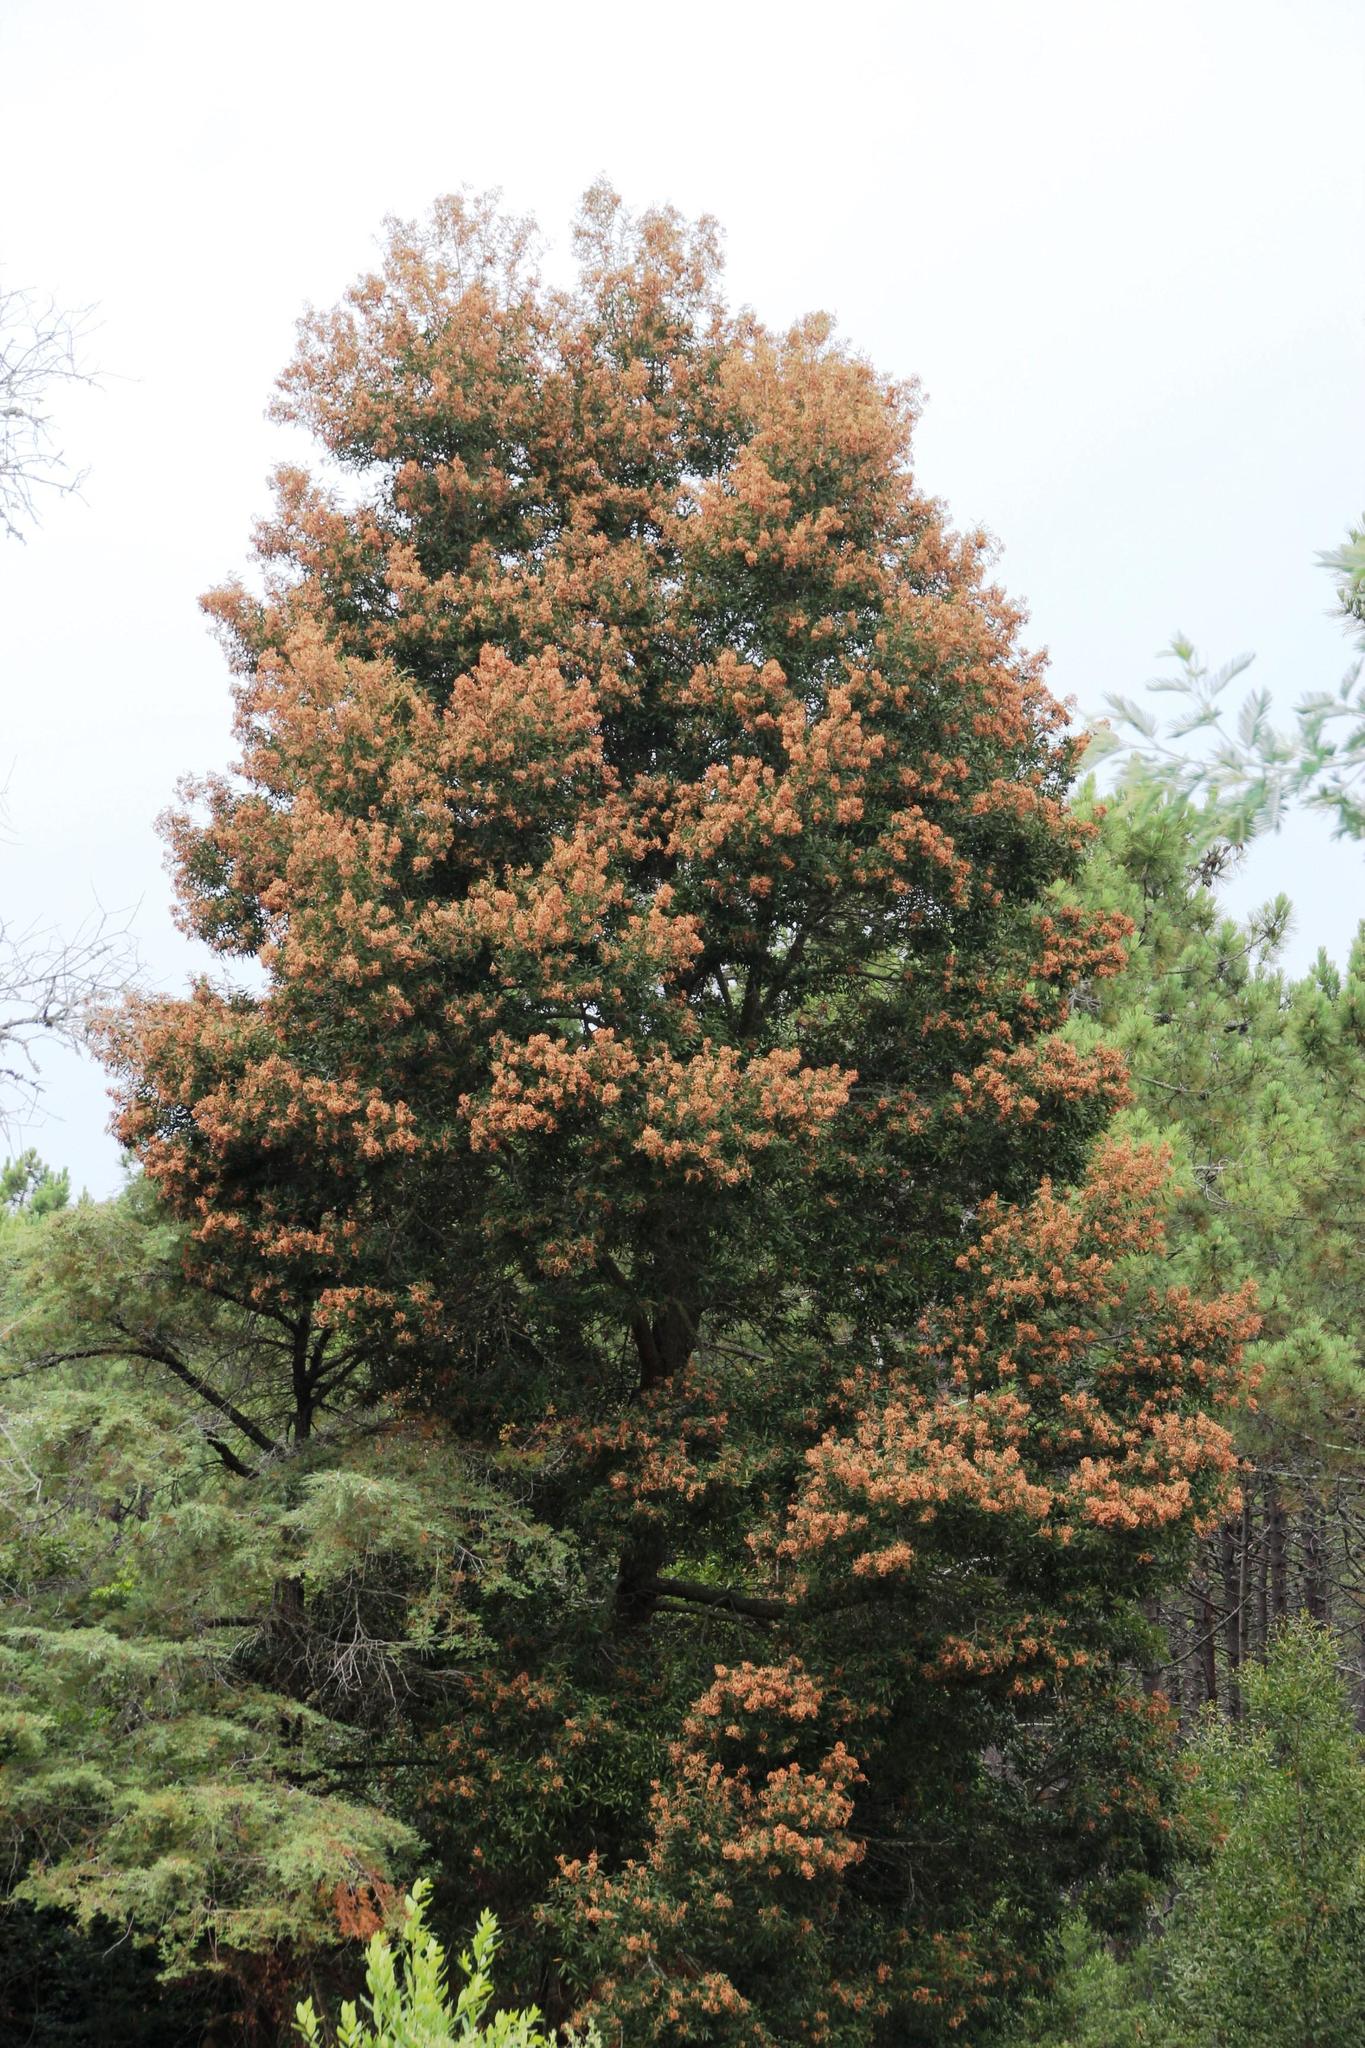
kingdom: Plantae
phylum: Tracheophyta
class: Magnoliopsida
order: Fabales
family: Fabaceae
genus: Acacia
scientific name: Acacia melanoxylon
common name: Blackwood
